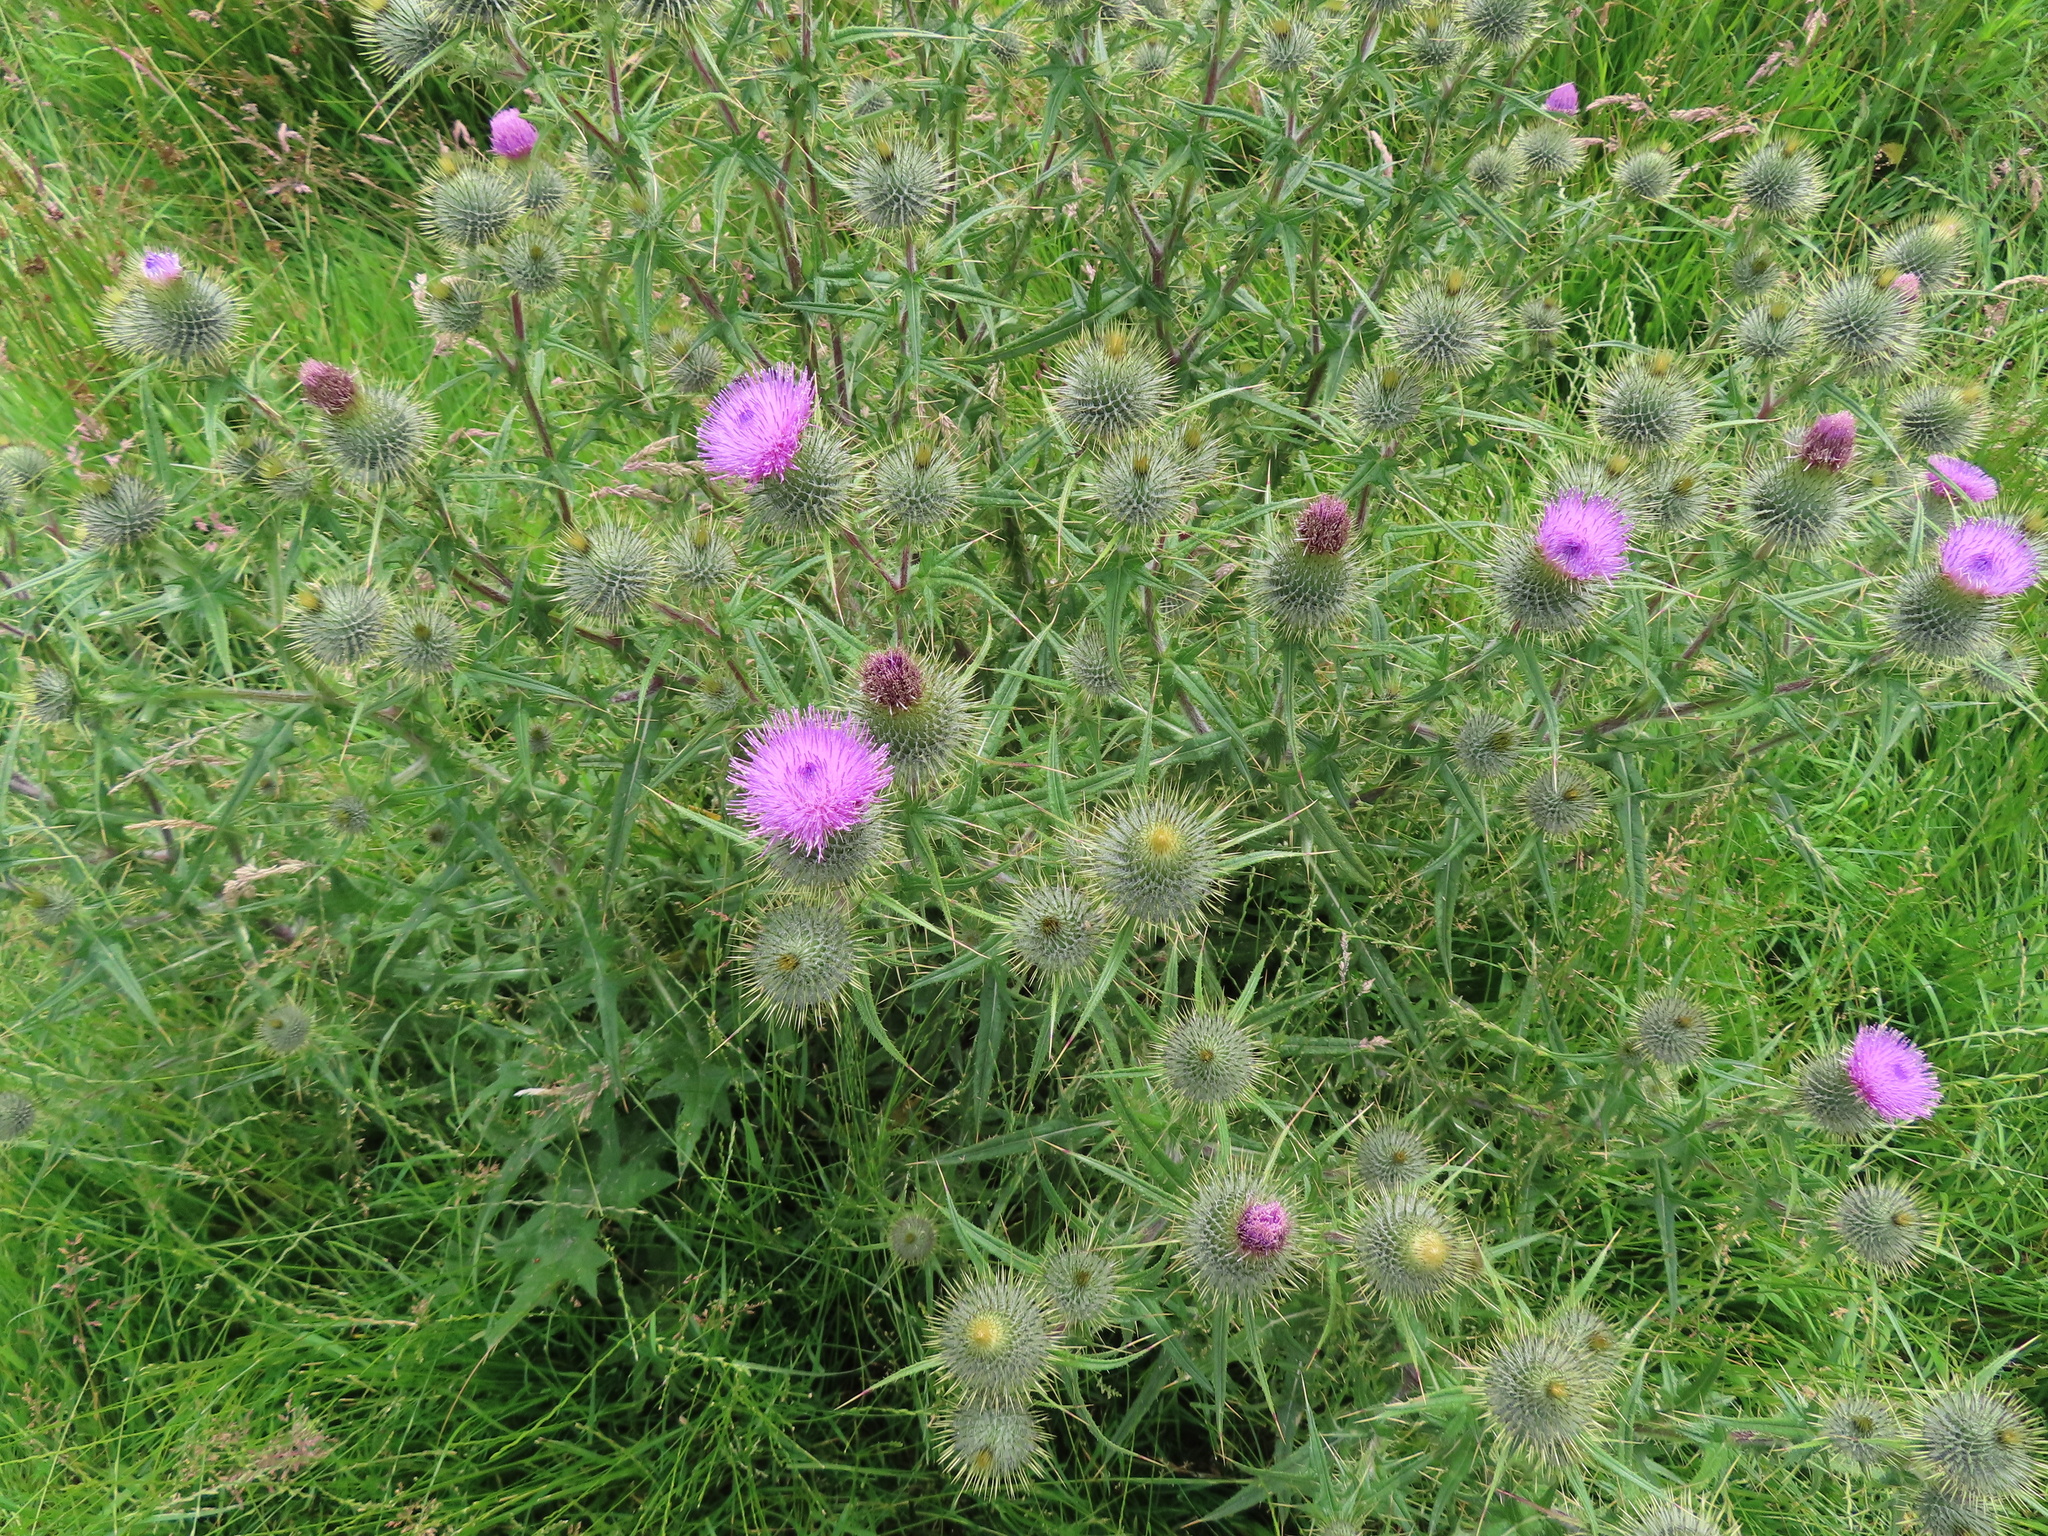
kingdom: Plantae
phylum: Tracheophyta
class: Magnoliopsida
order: Asterales
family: Asteraceae
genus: Cirsium
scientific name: Cirsium vulgare
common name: Bull thistle
